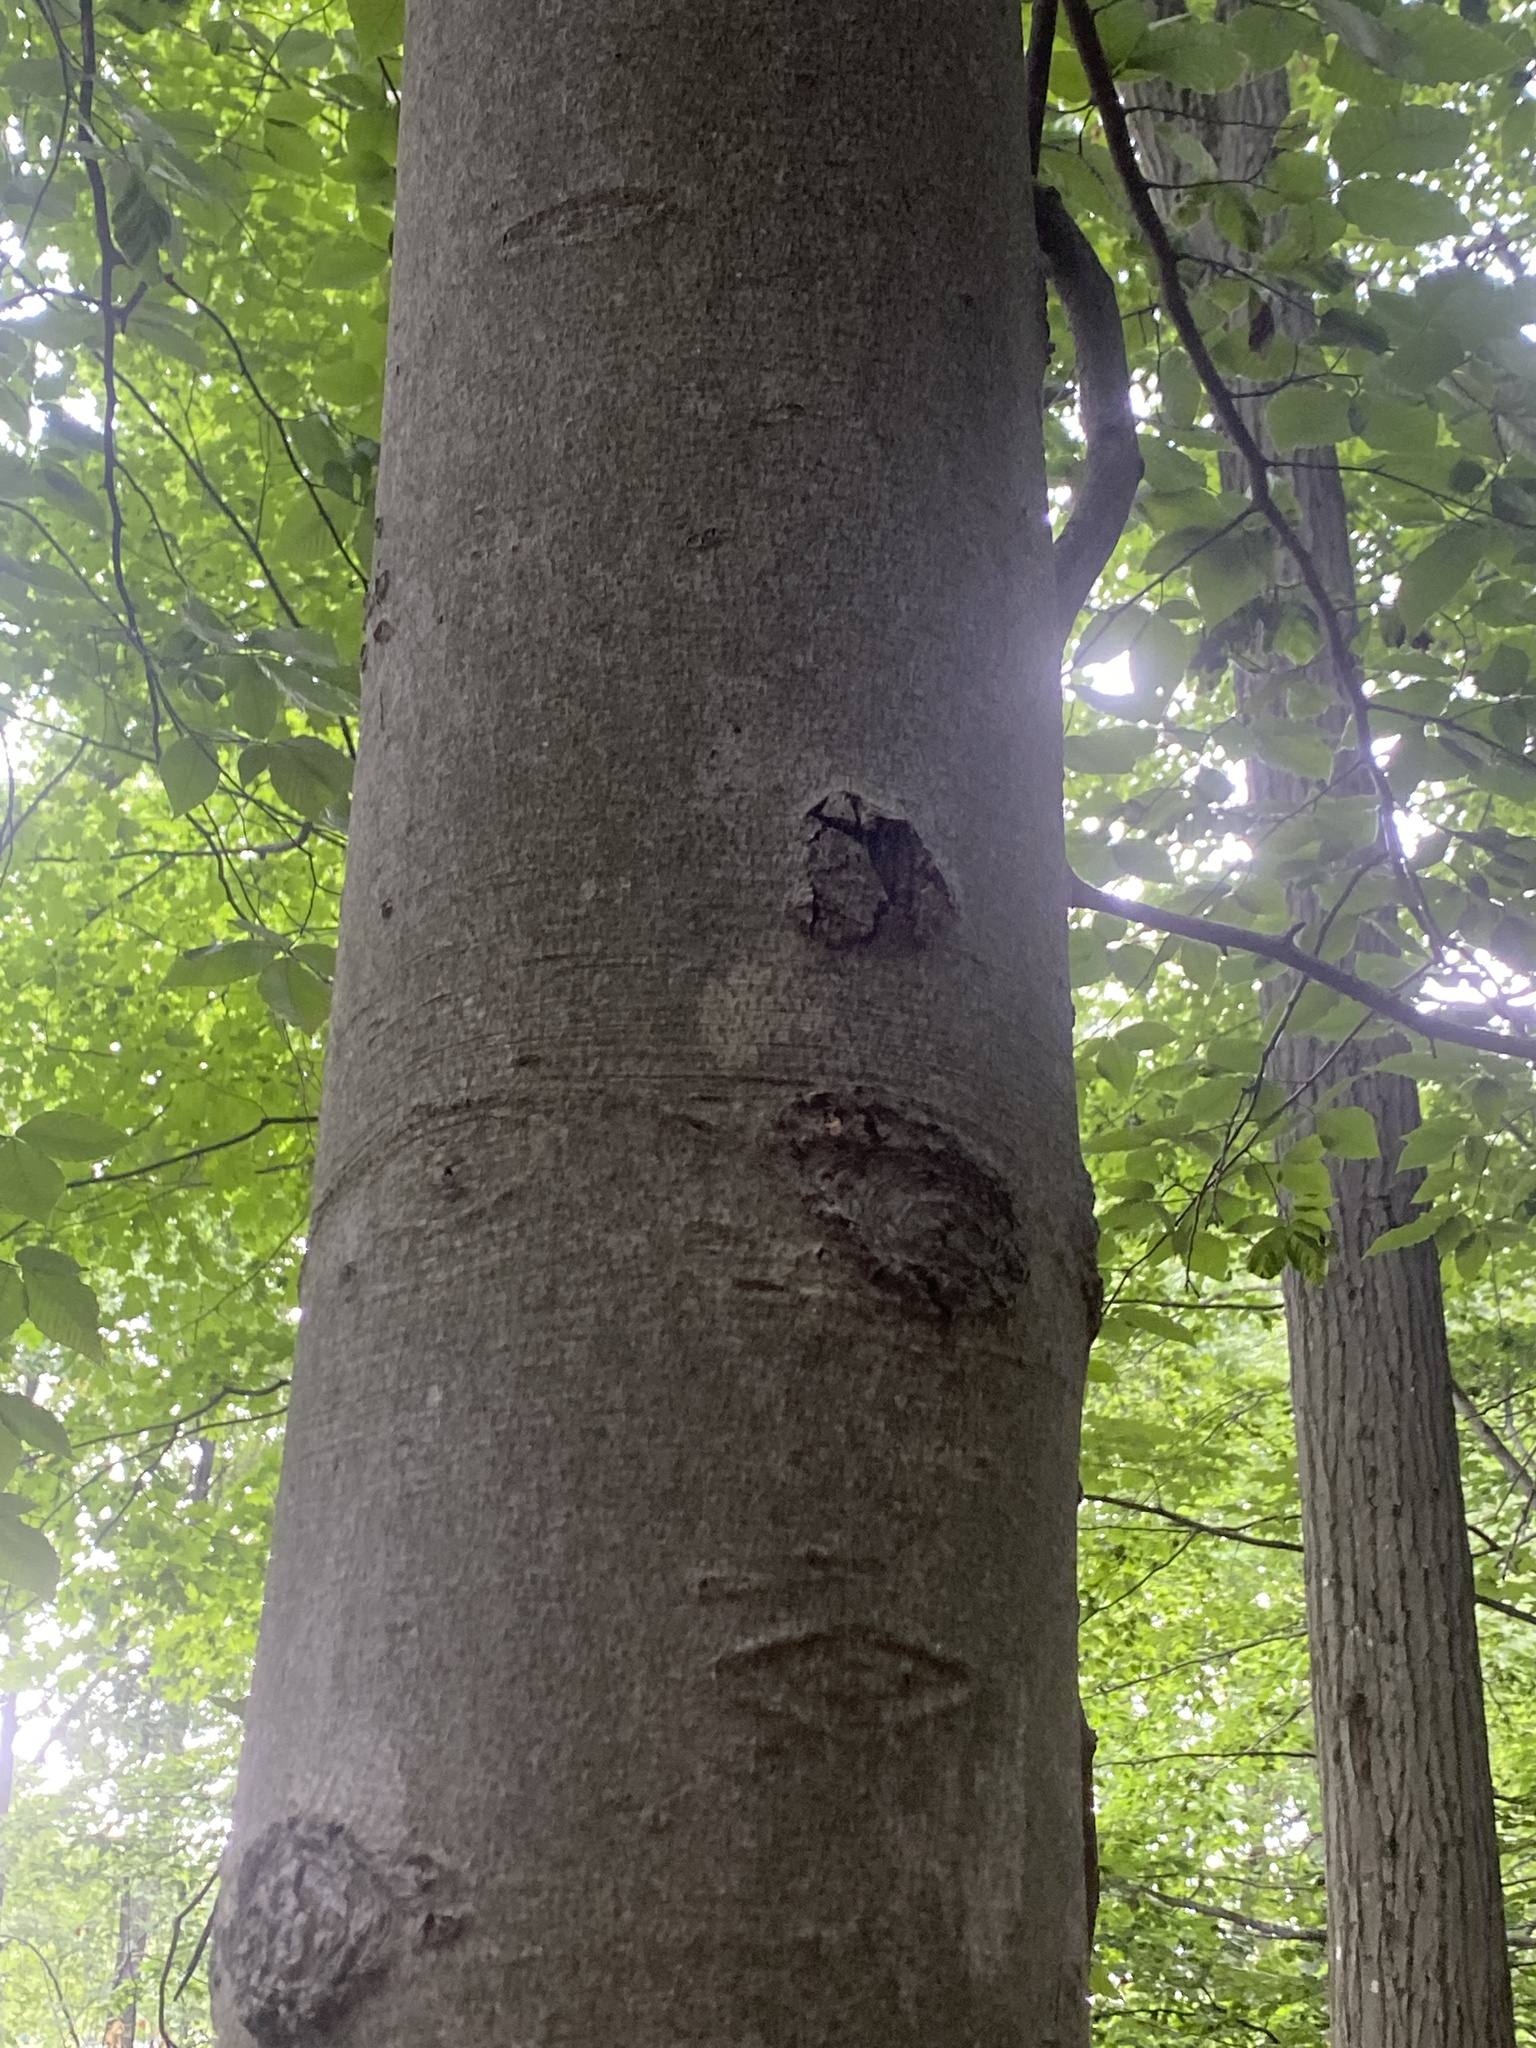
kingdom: Animalia
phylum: Nematoda
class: Chromadorea
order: Rhabditida
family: Anguinidae
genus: Litylenchus
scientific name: Litylenchus crenatae
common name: Beech leaf disease
